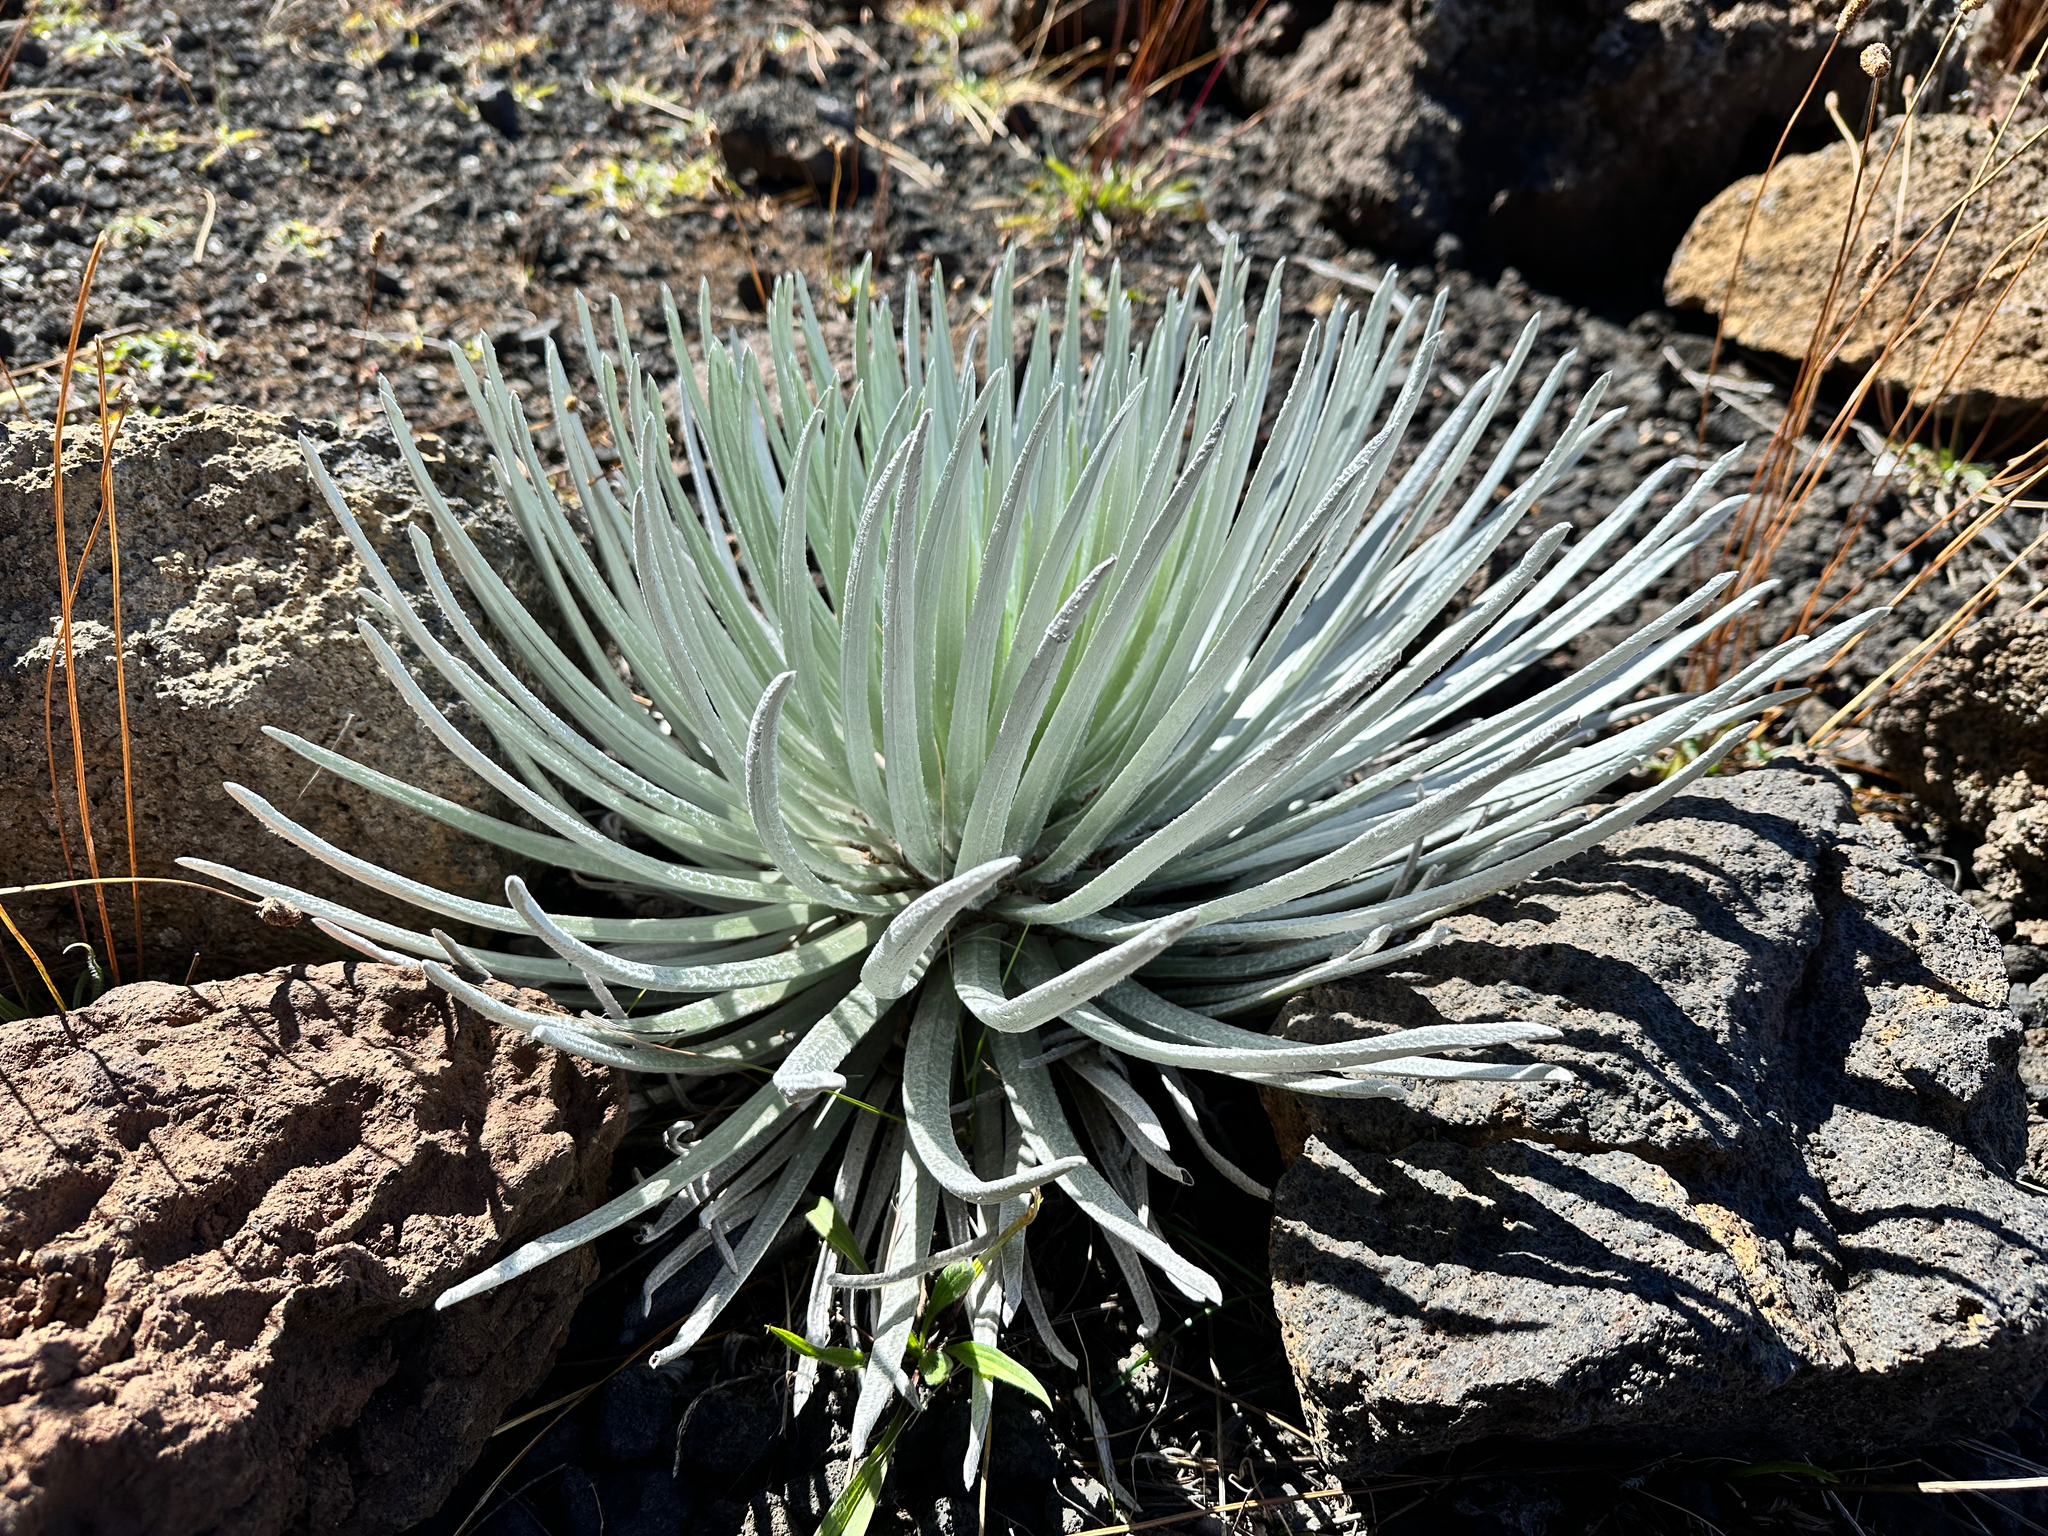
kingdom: Plantae
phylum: Tracheophyta
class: Magnoliopsida
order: Asterales
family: Asteraceae
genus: Argyroxiphium
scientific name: Argyroxiphium sandwicense
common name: Silversword
